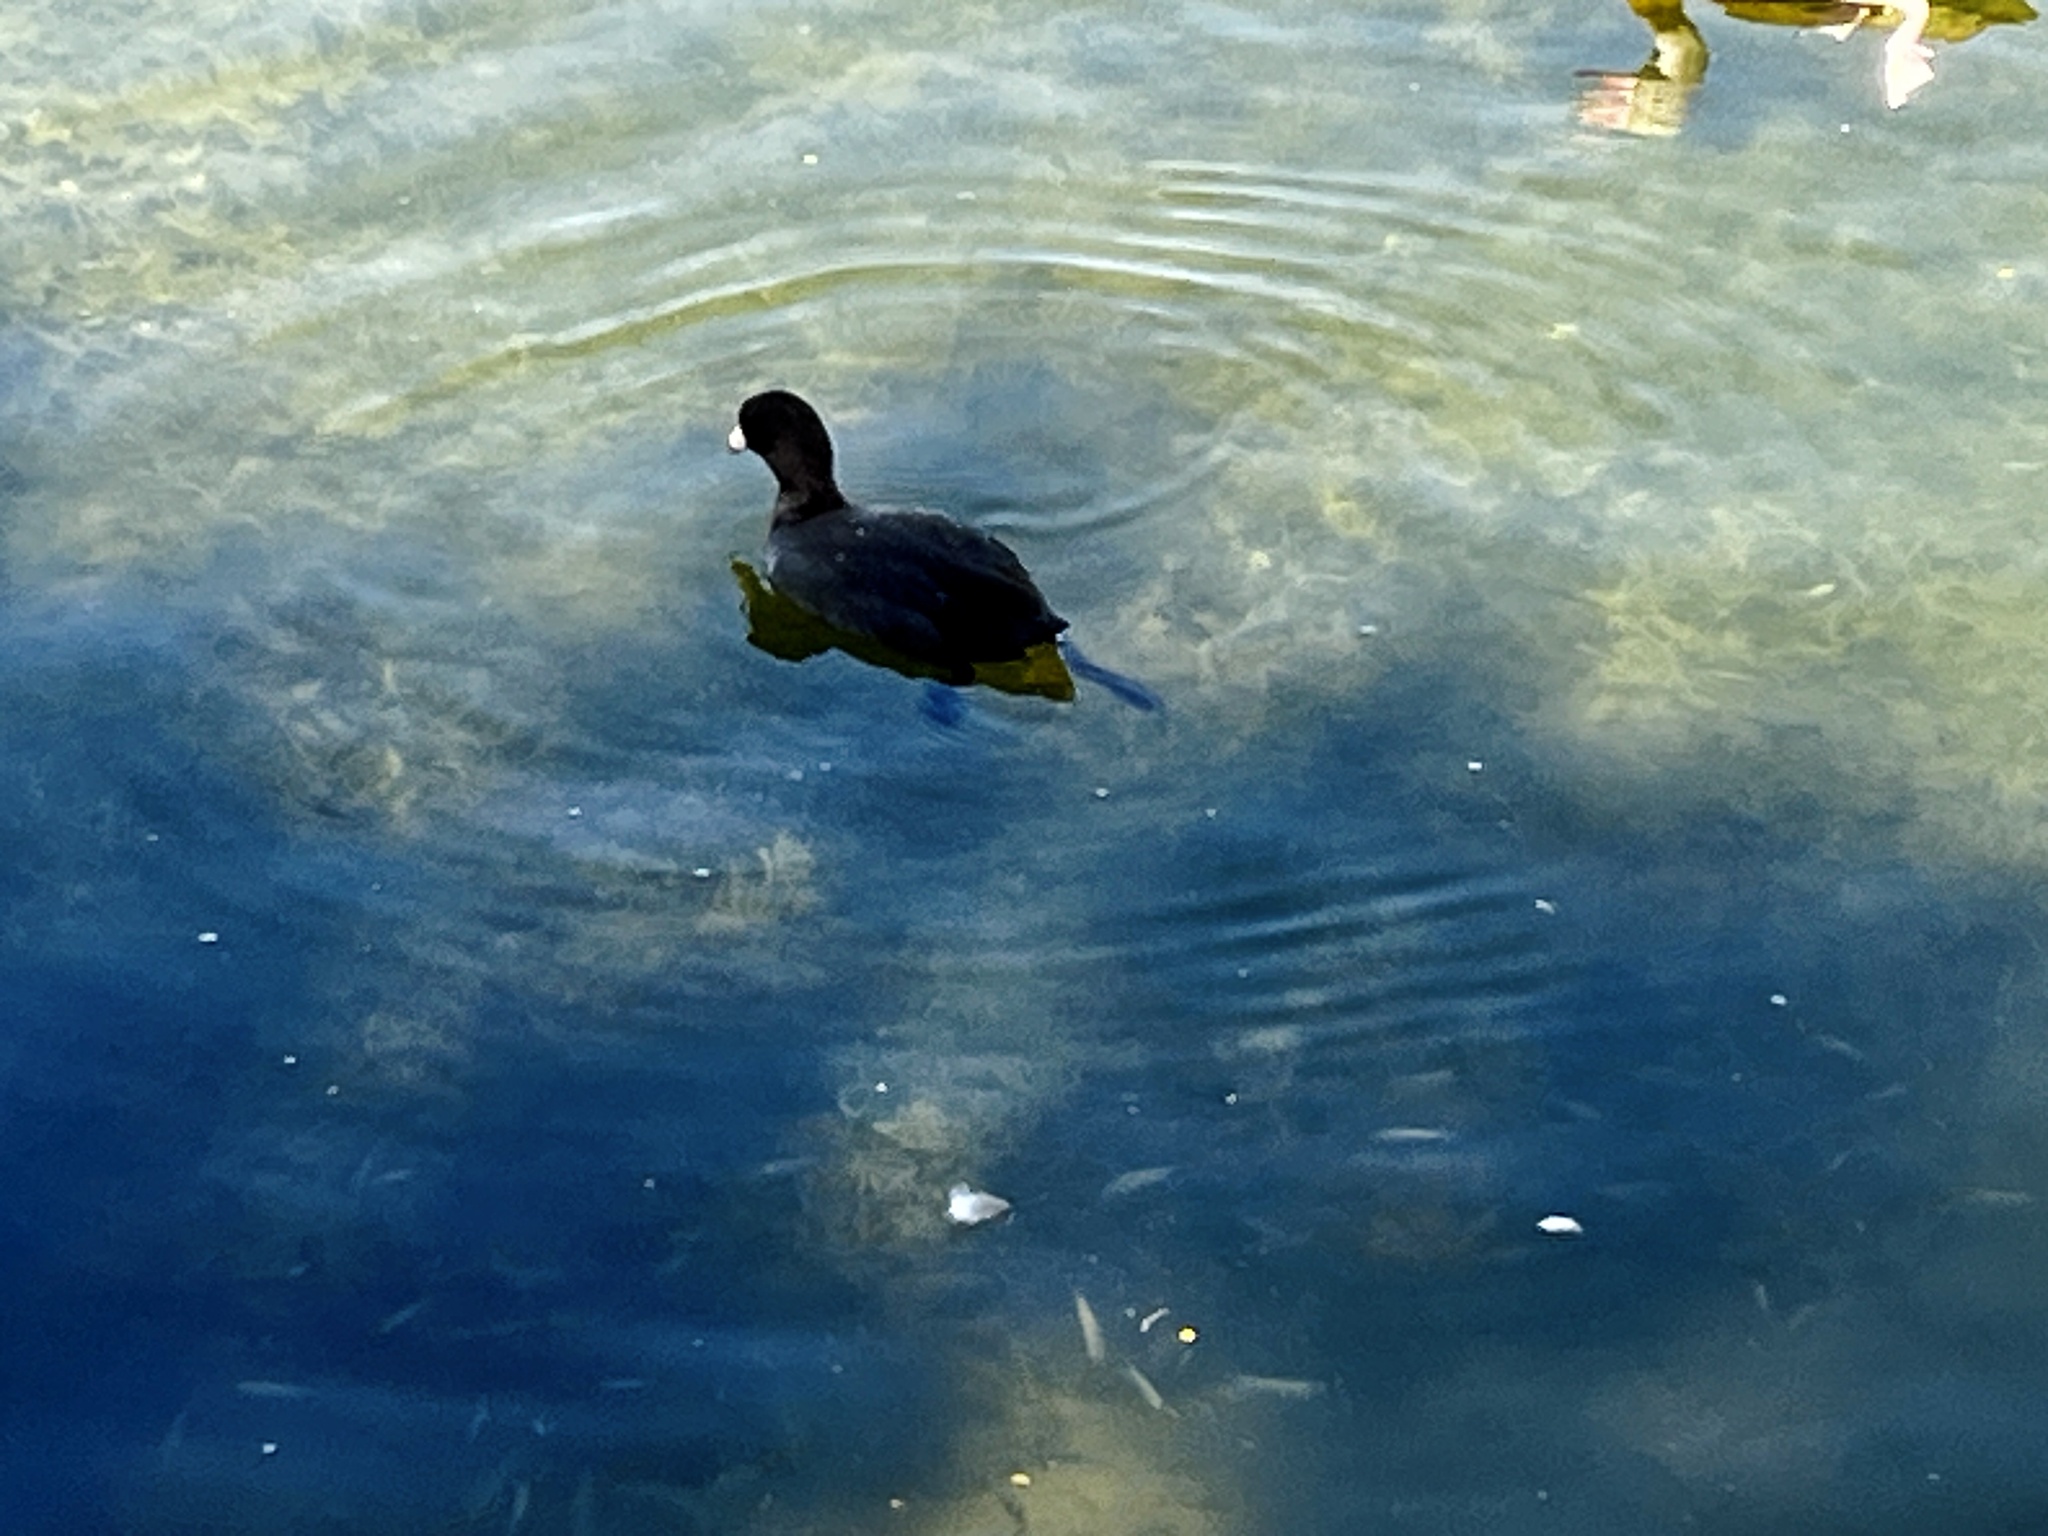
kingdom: Animalia
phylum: Chordata
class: Aves
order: Gruiformes
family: Rallidae
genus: Fulica
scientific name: Fulica americana
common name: American coot
